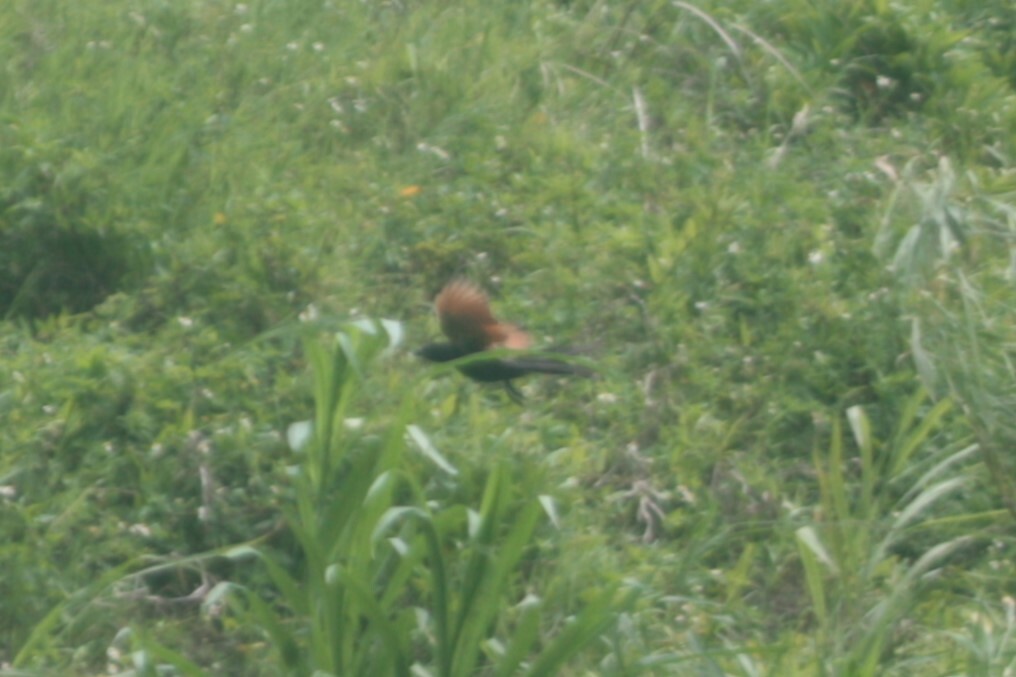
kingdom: Animalia
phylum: Chordata
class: Aves
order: Cuculiformes
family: Cuculidae
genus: Centropus
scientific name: Centropus bengalensis
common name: Lesser coucal
